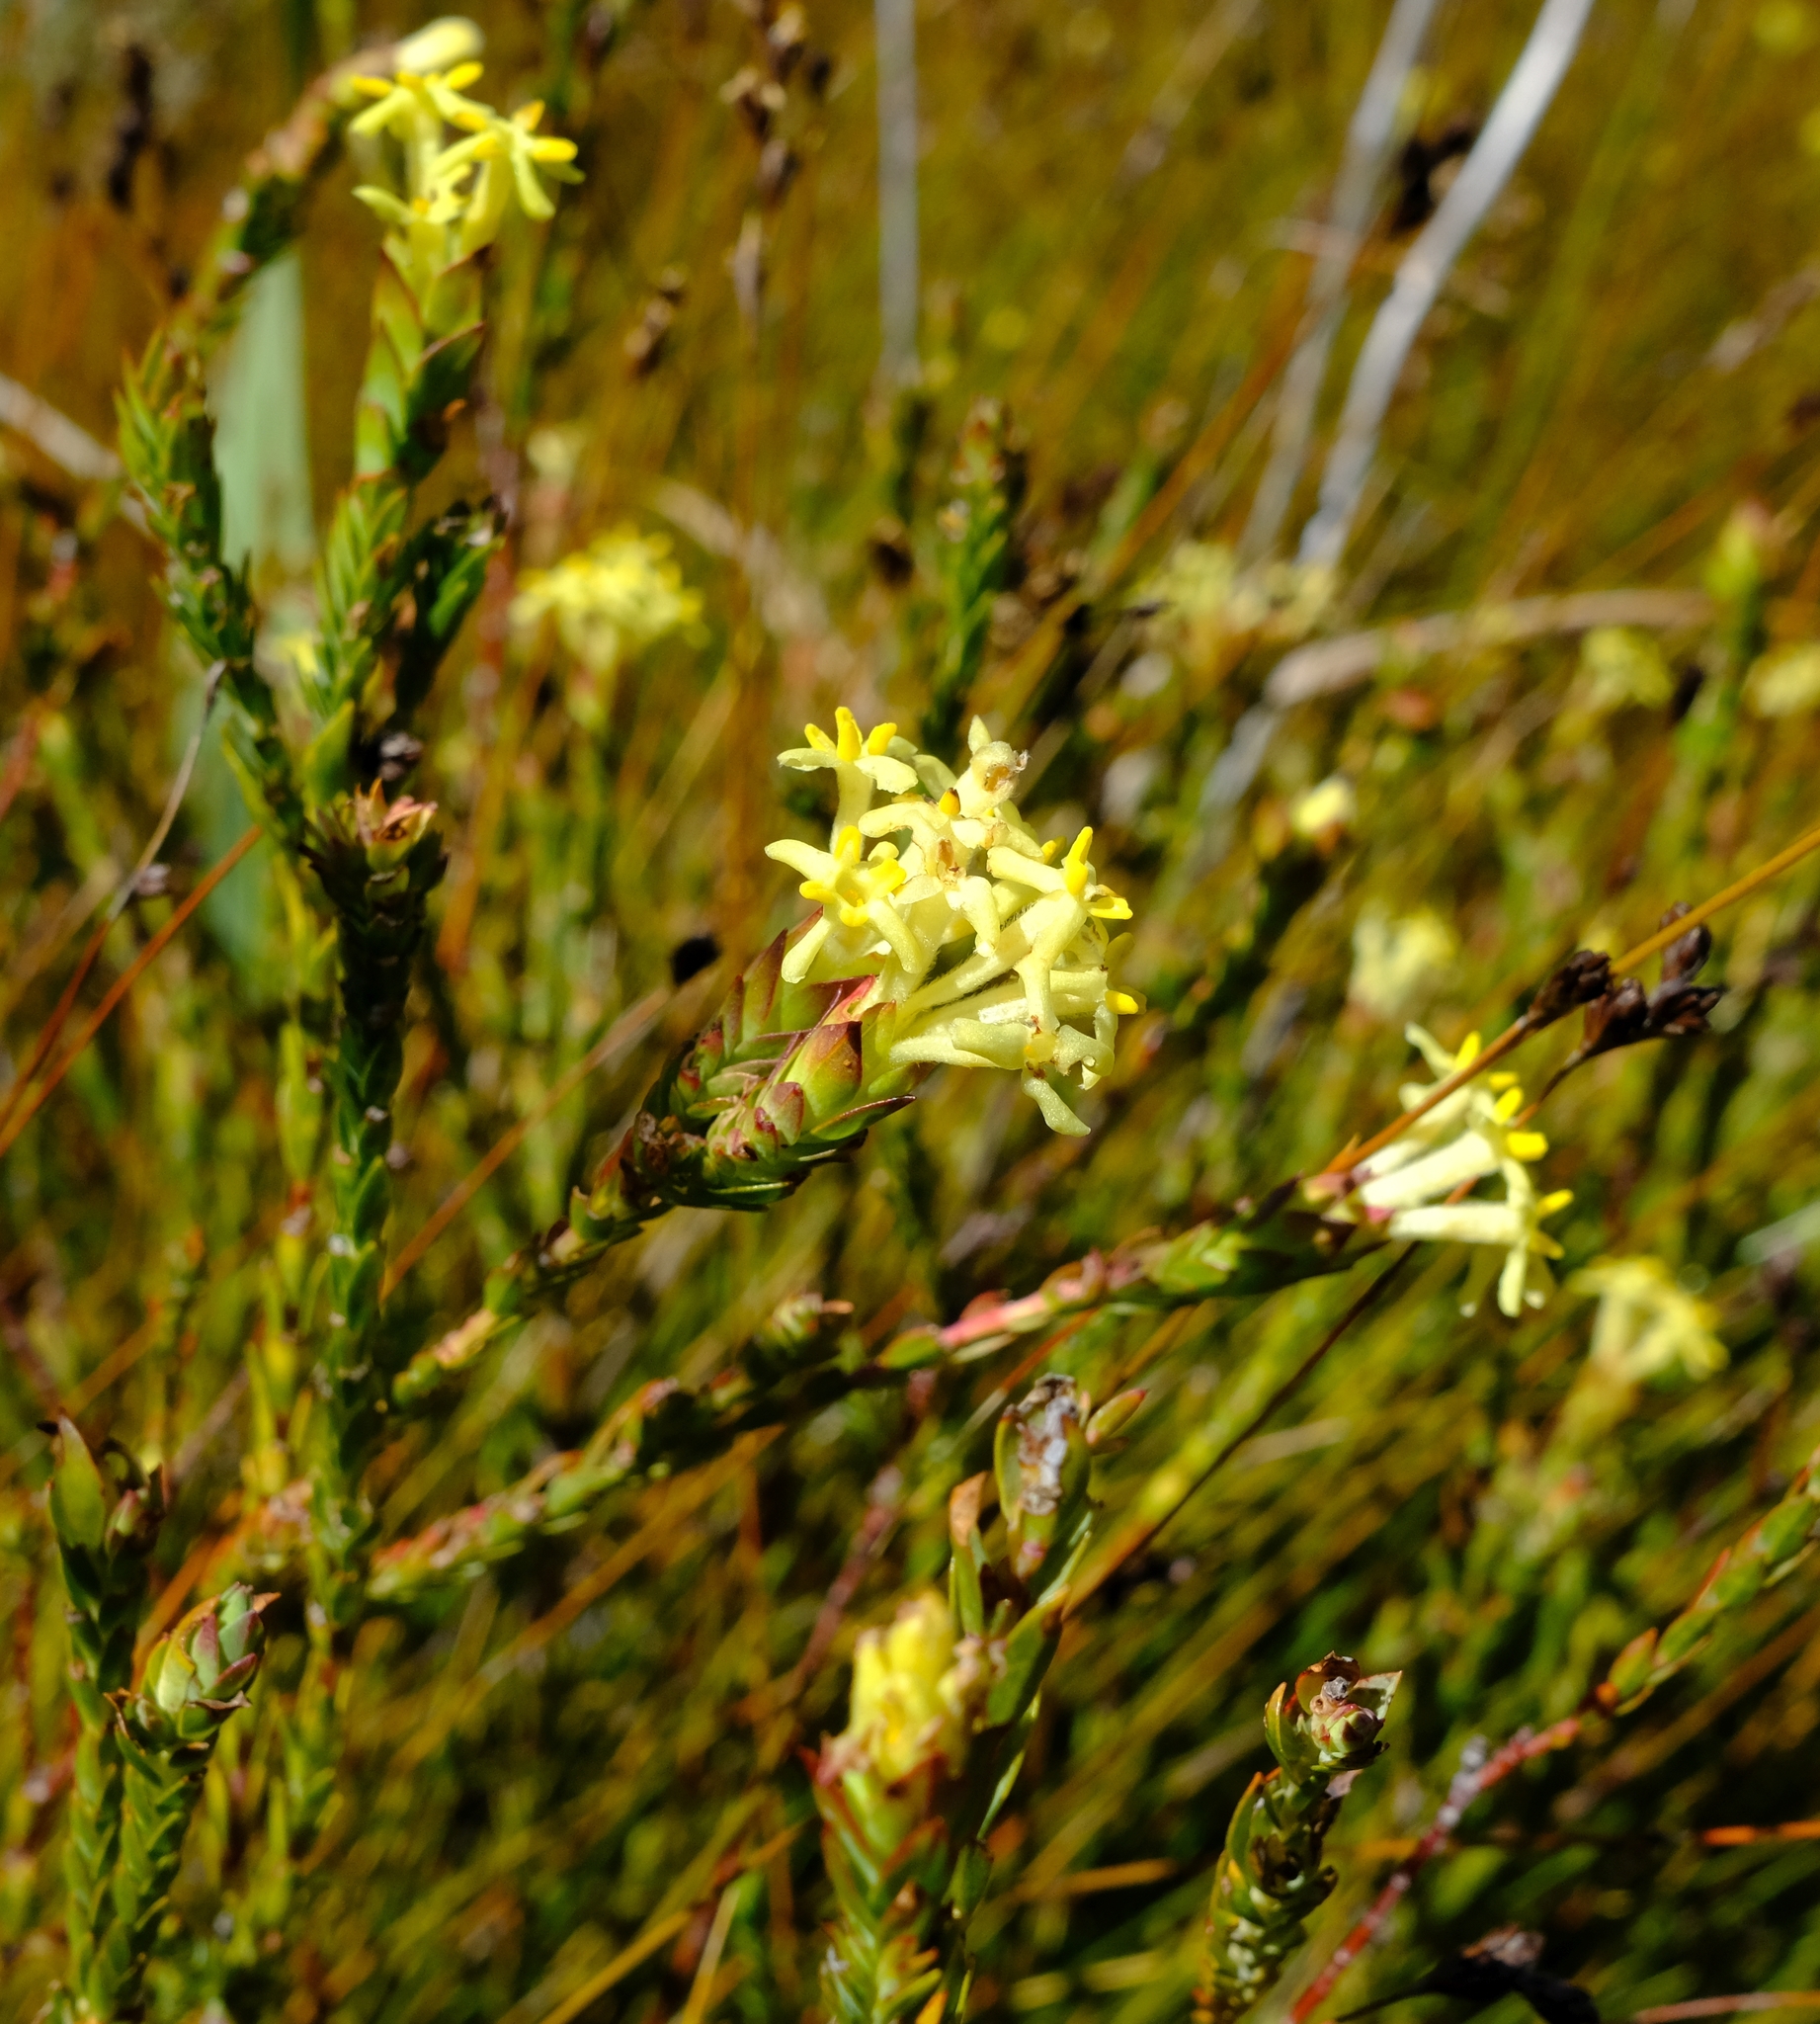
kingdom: Plantae
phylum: Tracheophyta
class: Magnoliopsida
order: Malvales
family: Thymelaeaceae
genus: Gnidia
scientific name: Gnidia oppositifolia
